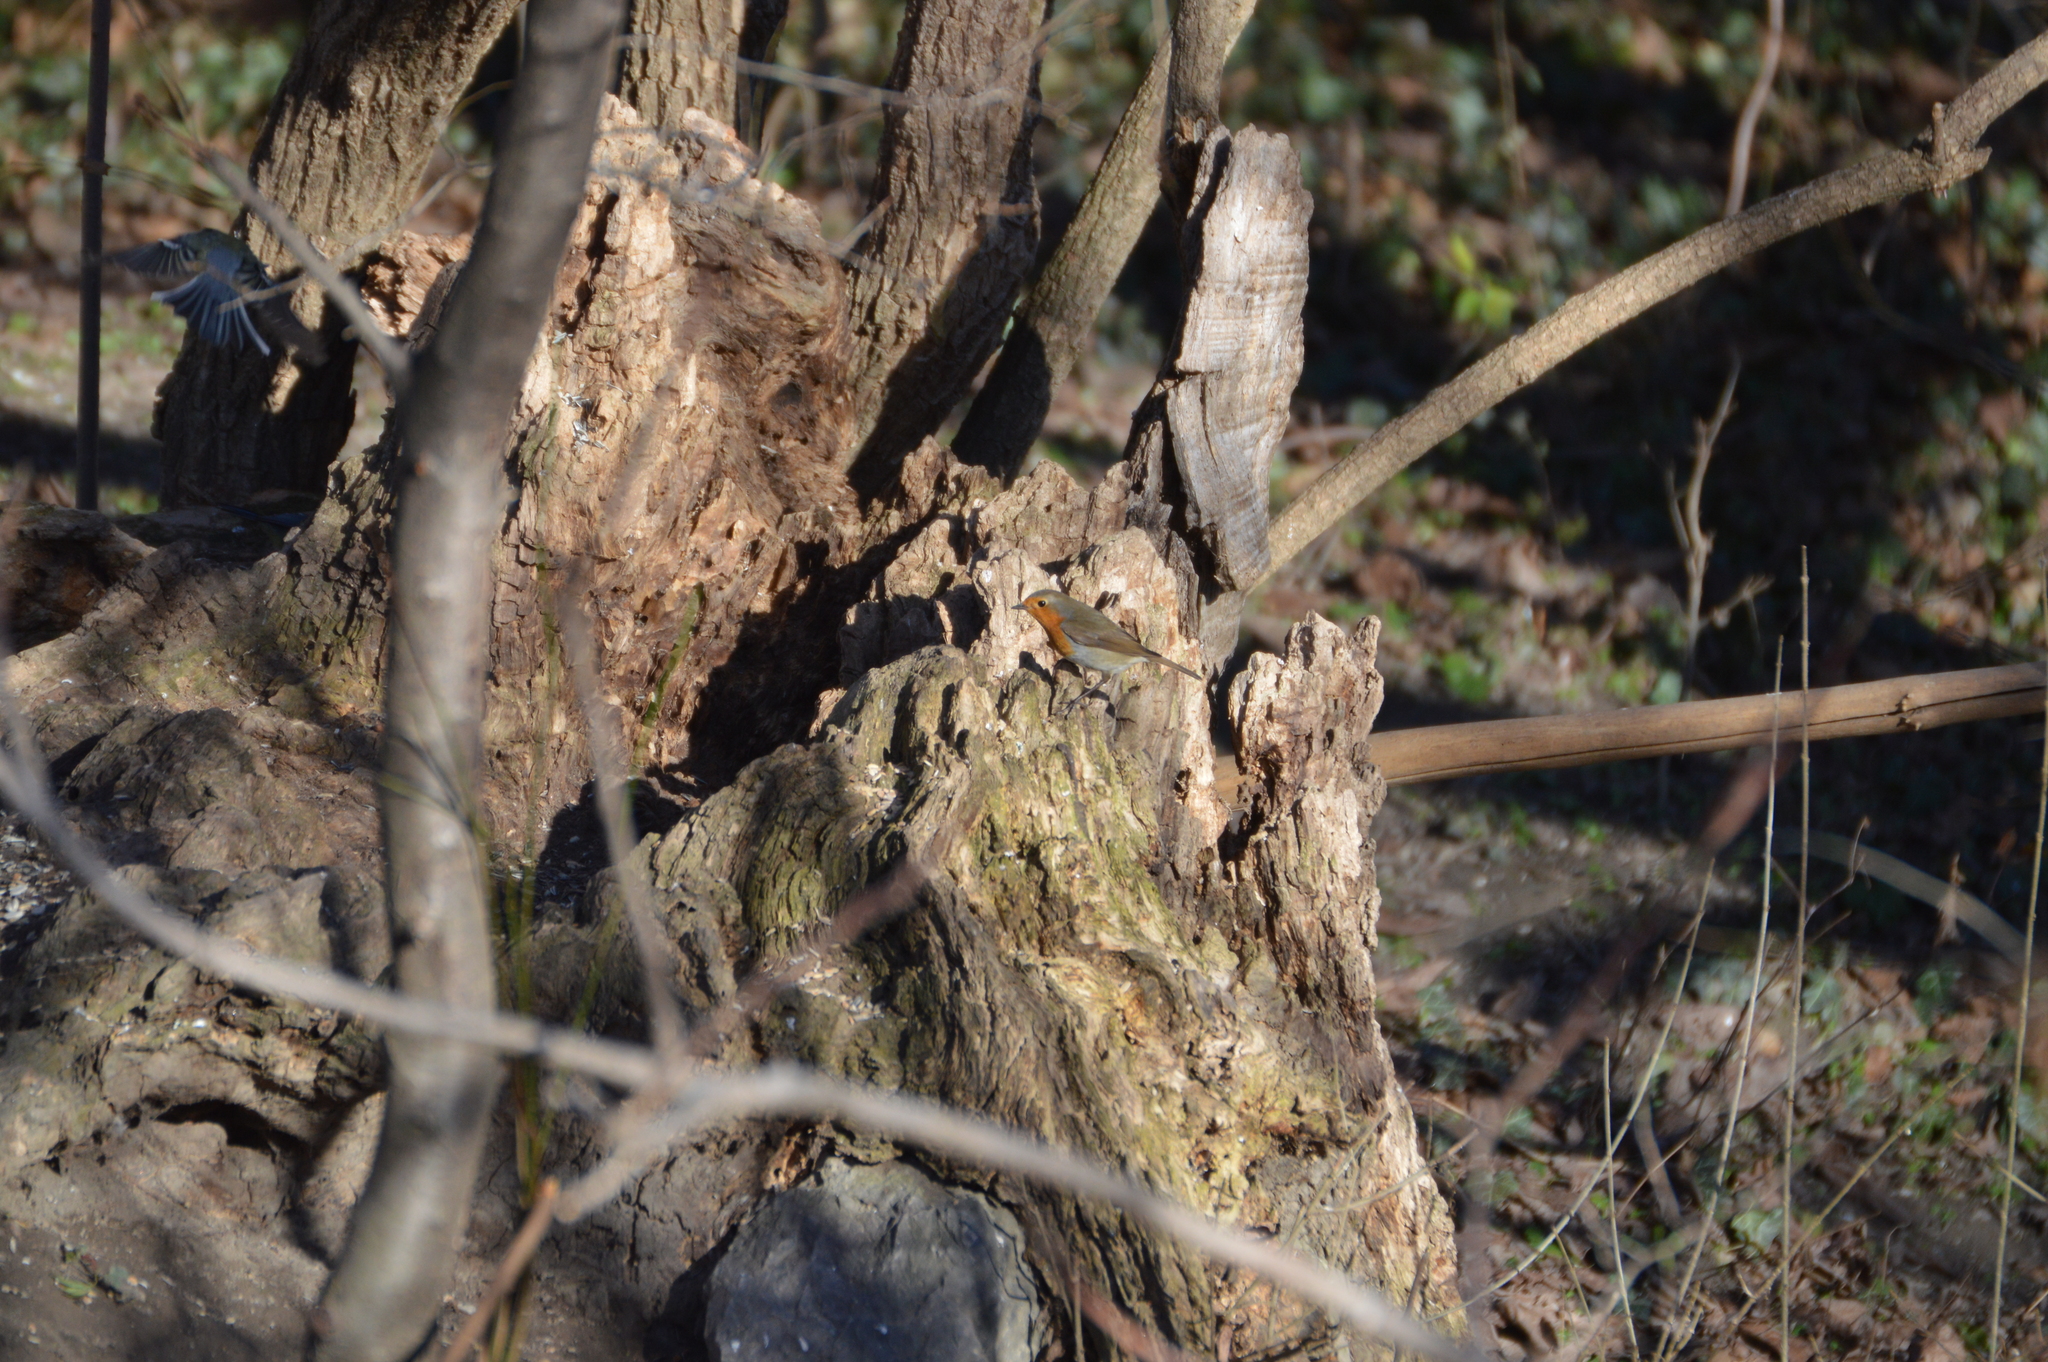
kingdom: Animalia
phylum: Chordata
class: Aves
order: Passeriformes
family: Muscicapidae
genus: Erithacus
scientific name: Erithacus rubecula
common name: European robin
